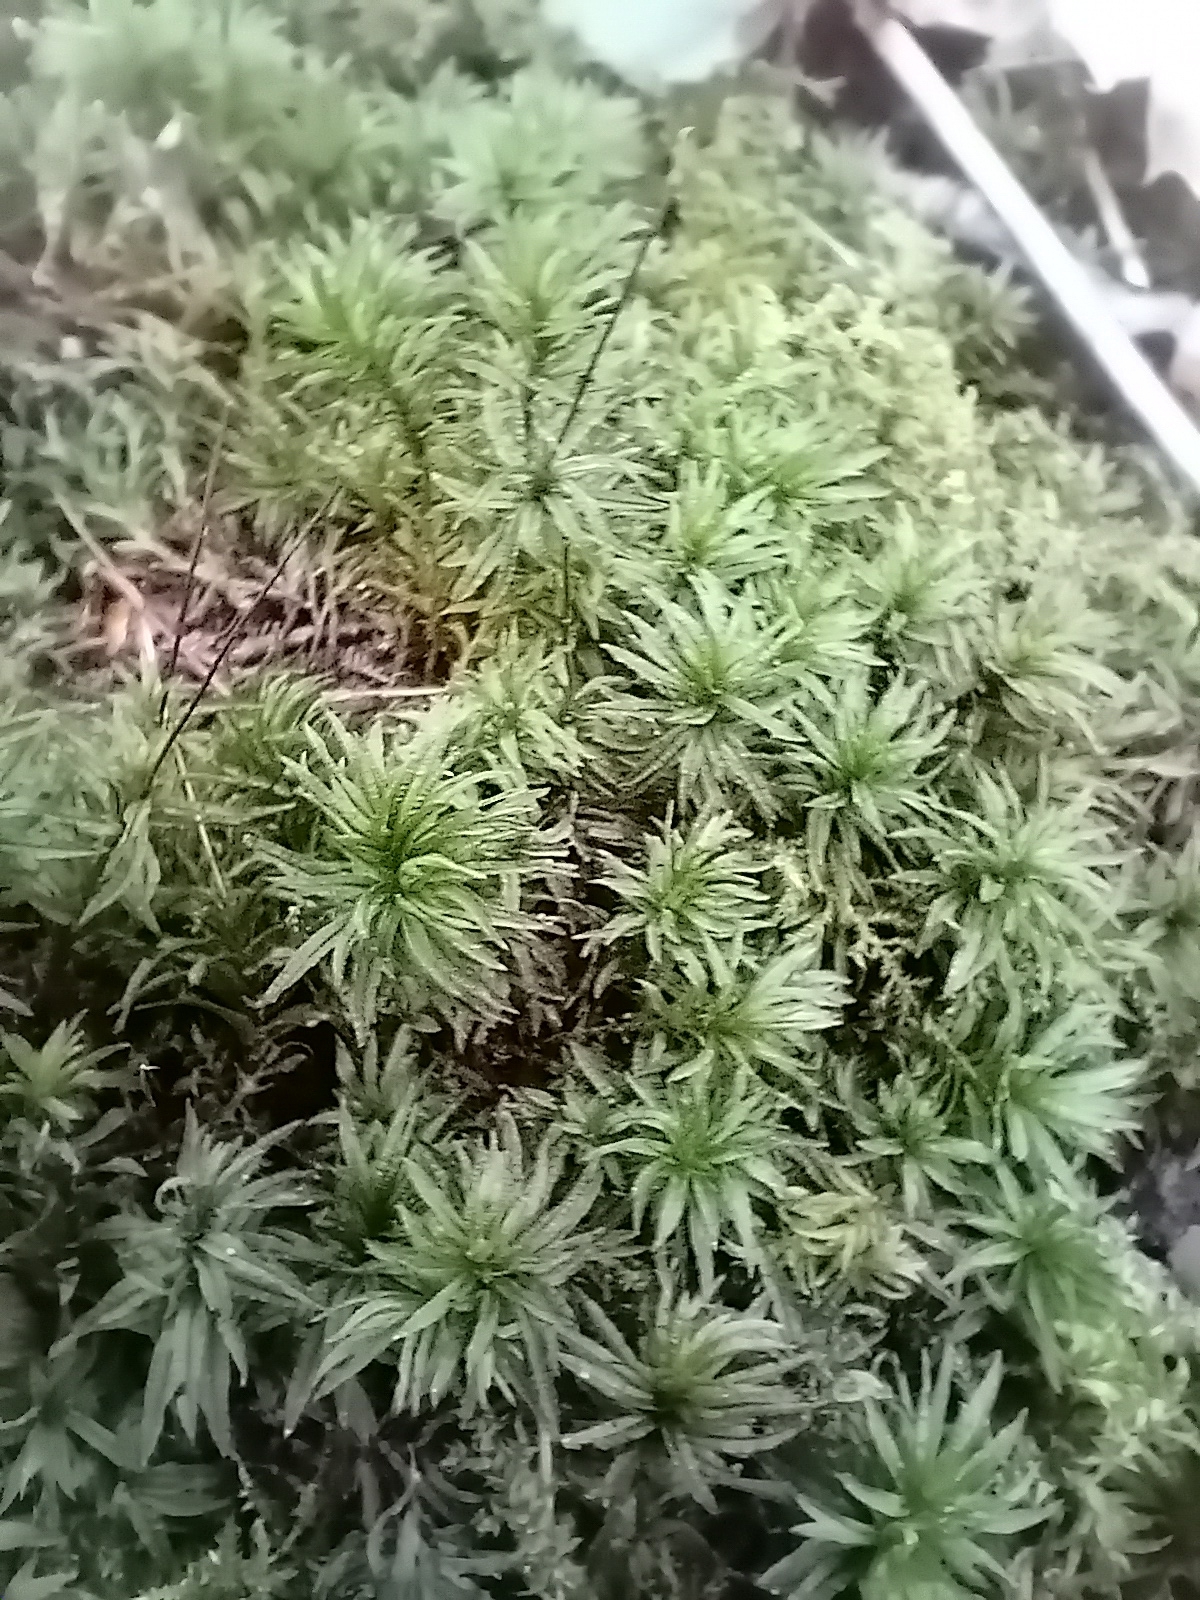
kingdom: Plantae
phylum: Bryophyta
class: Polytrichopsida
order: Polytrichales
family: Polytrichaceae
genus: Atrichum
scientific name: Atrichum undulatum
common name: Common smoothcap
